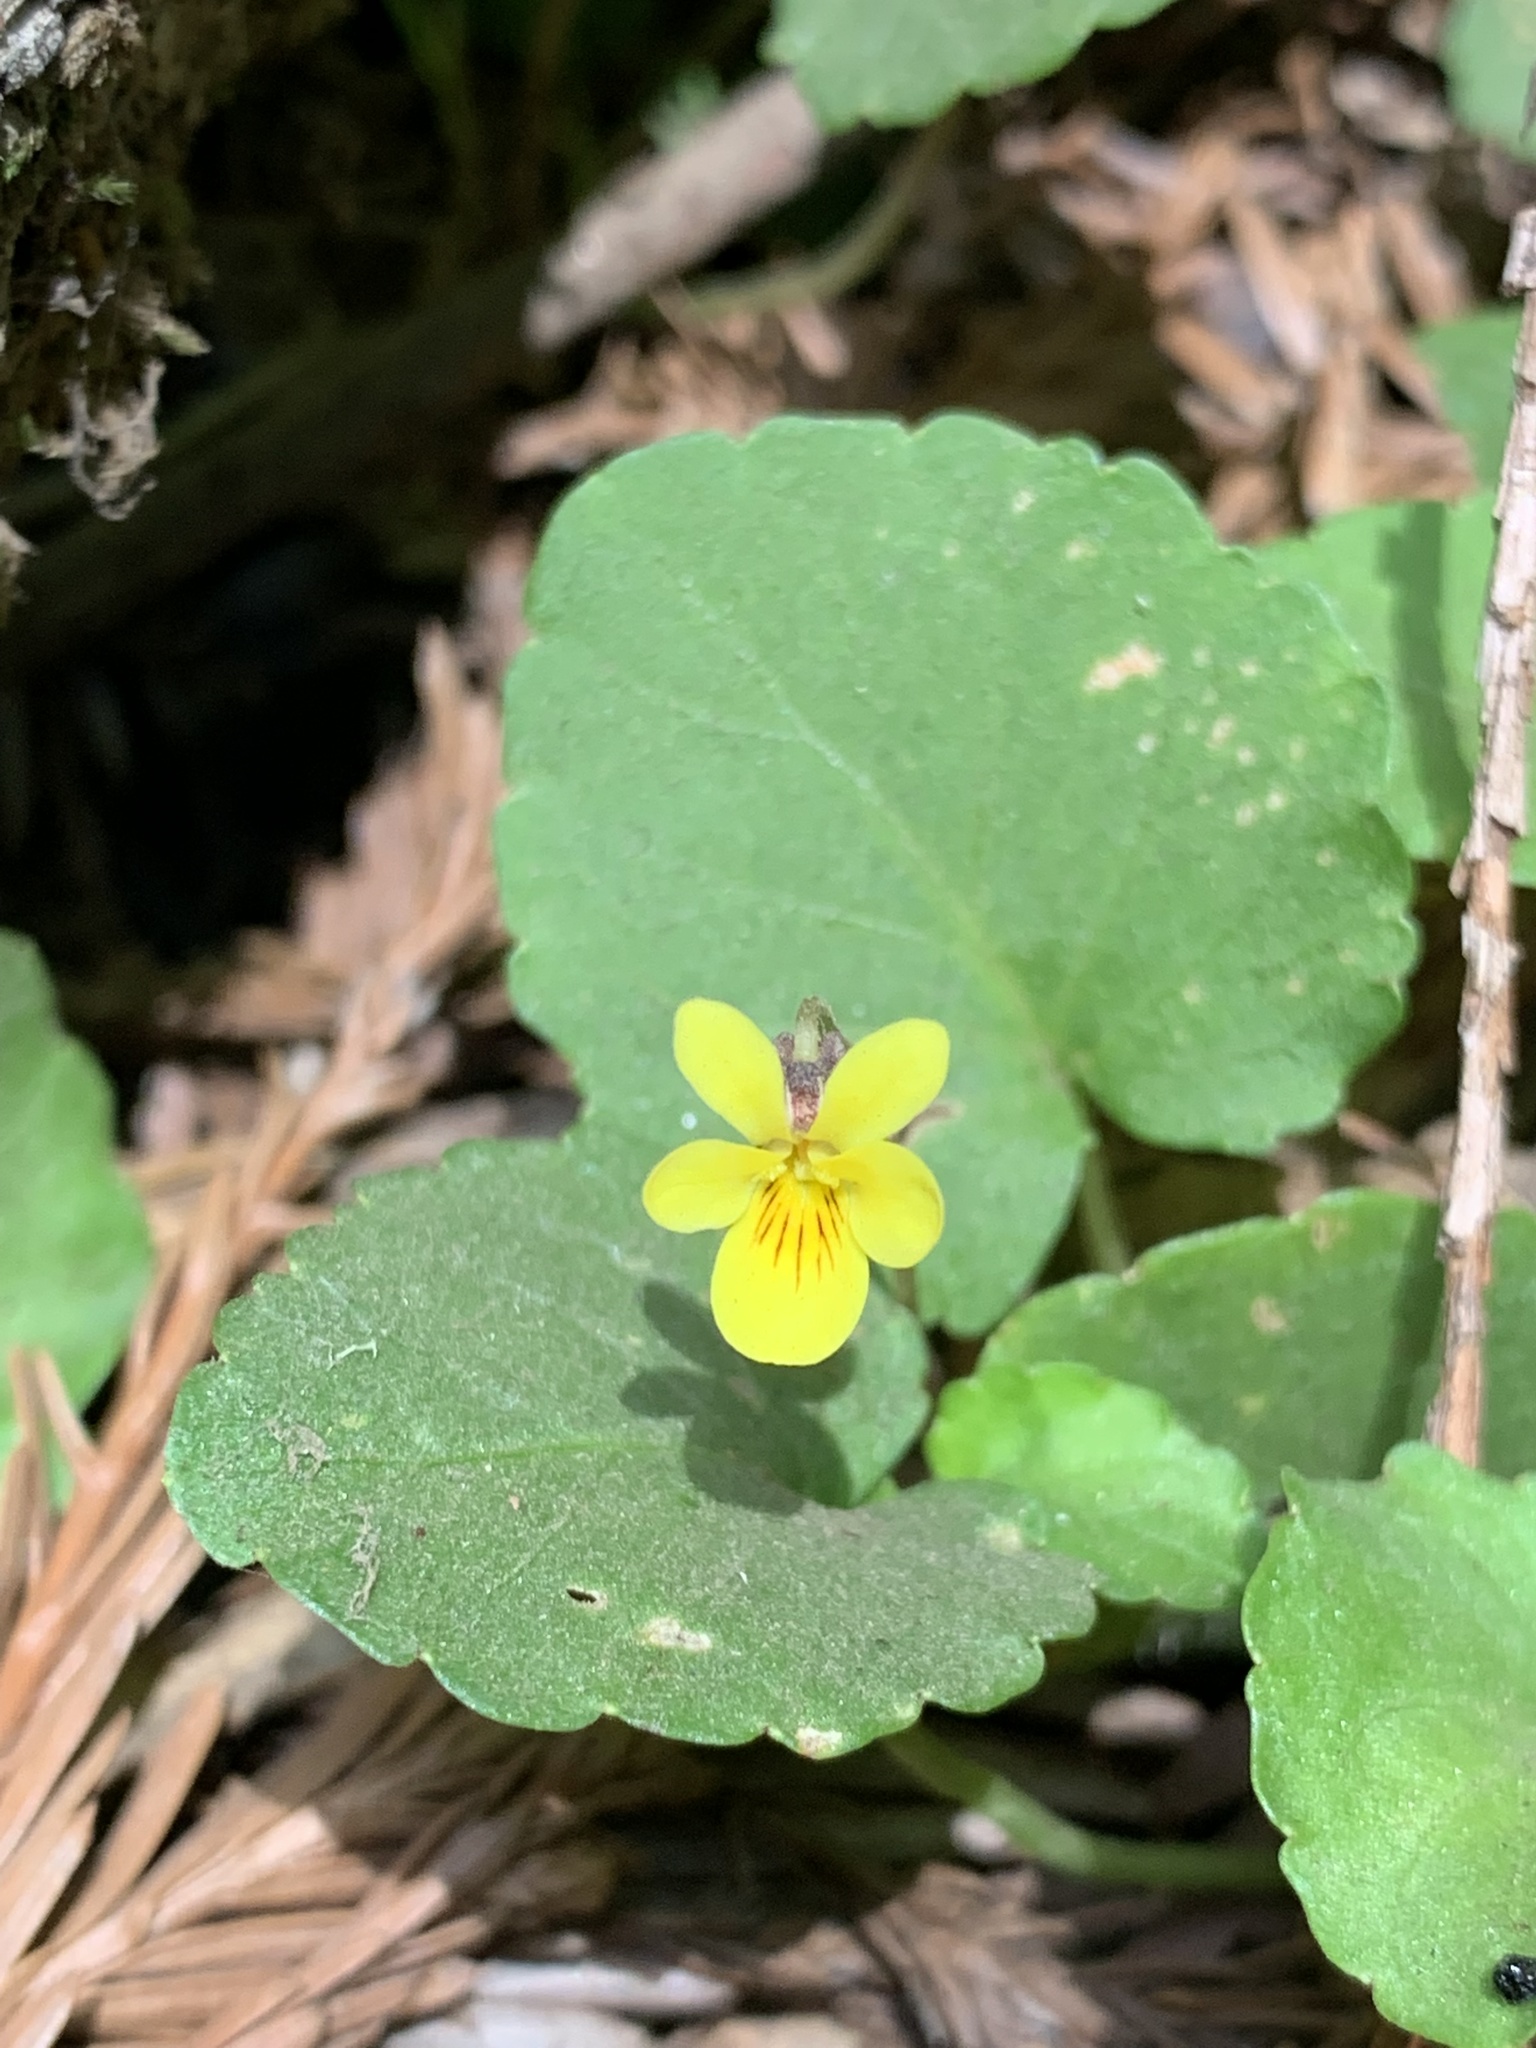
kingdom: Plantae
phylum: Tracheophyta
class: Magnoliopsida
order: Malpighiales
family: Violaceae
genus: Viola
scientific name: Viola sempervirens
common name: Evergreen violet
